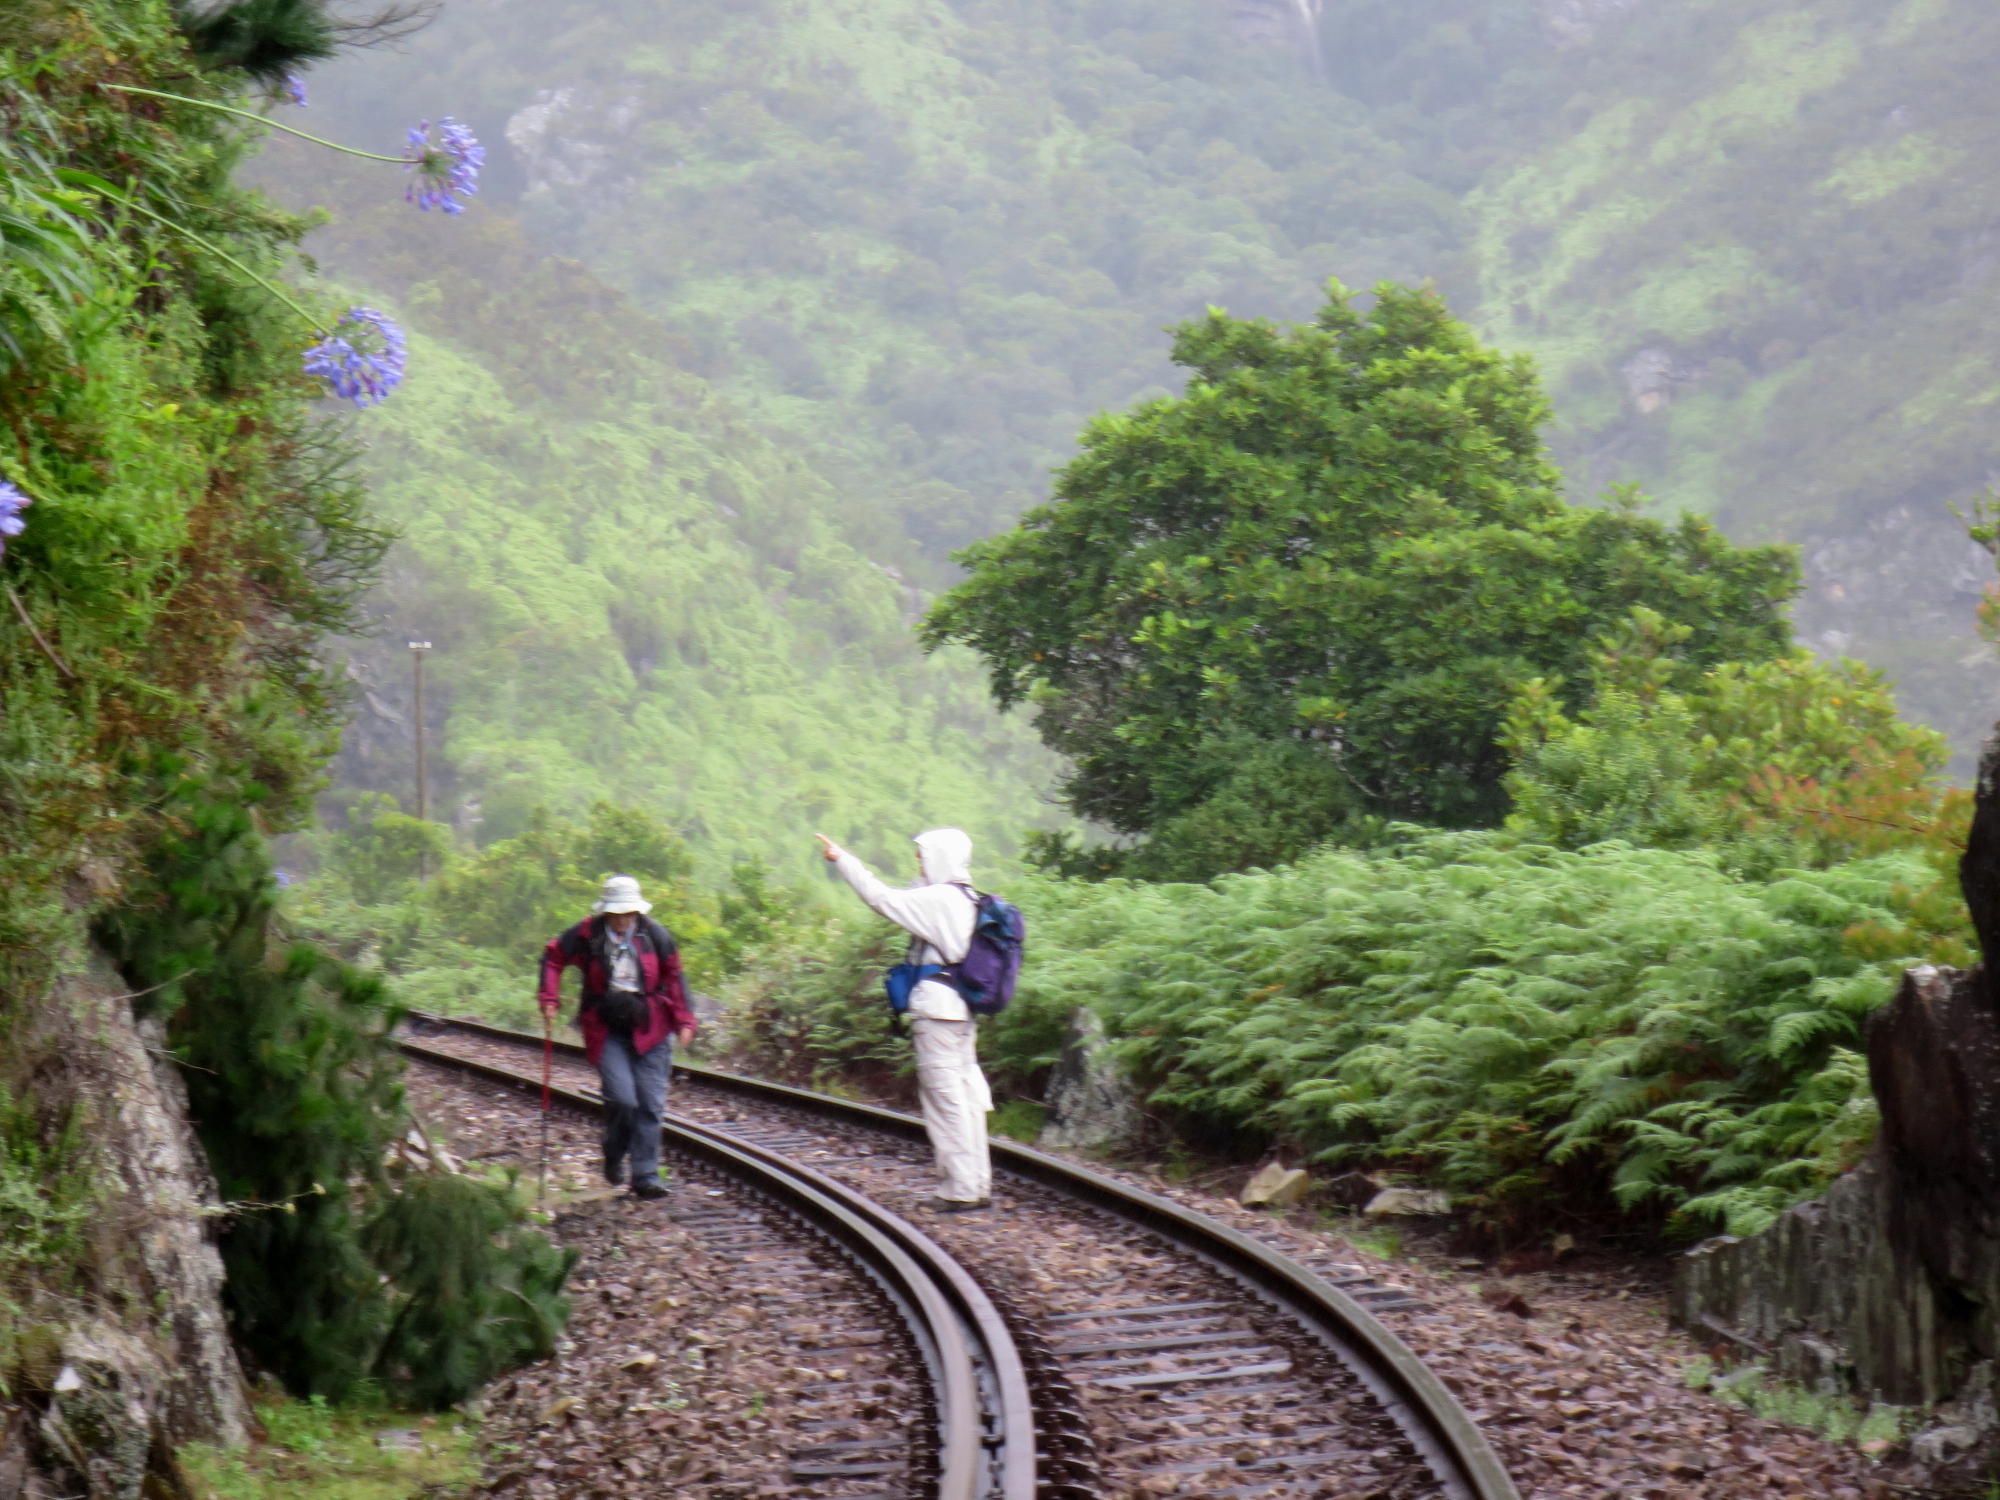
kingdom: Plantae
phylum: Tracheophyta
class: Polypodiopsida
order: Gleicheniales
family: Gleicheniaceae
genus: Gleichenia
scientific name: Gleichenia polypodioides
